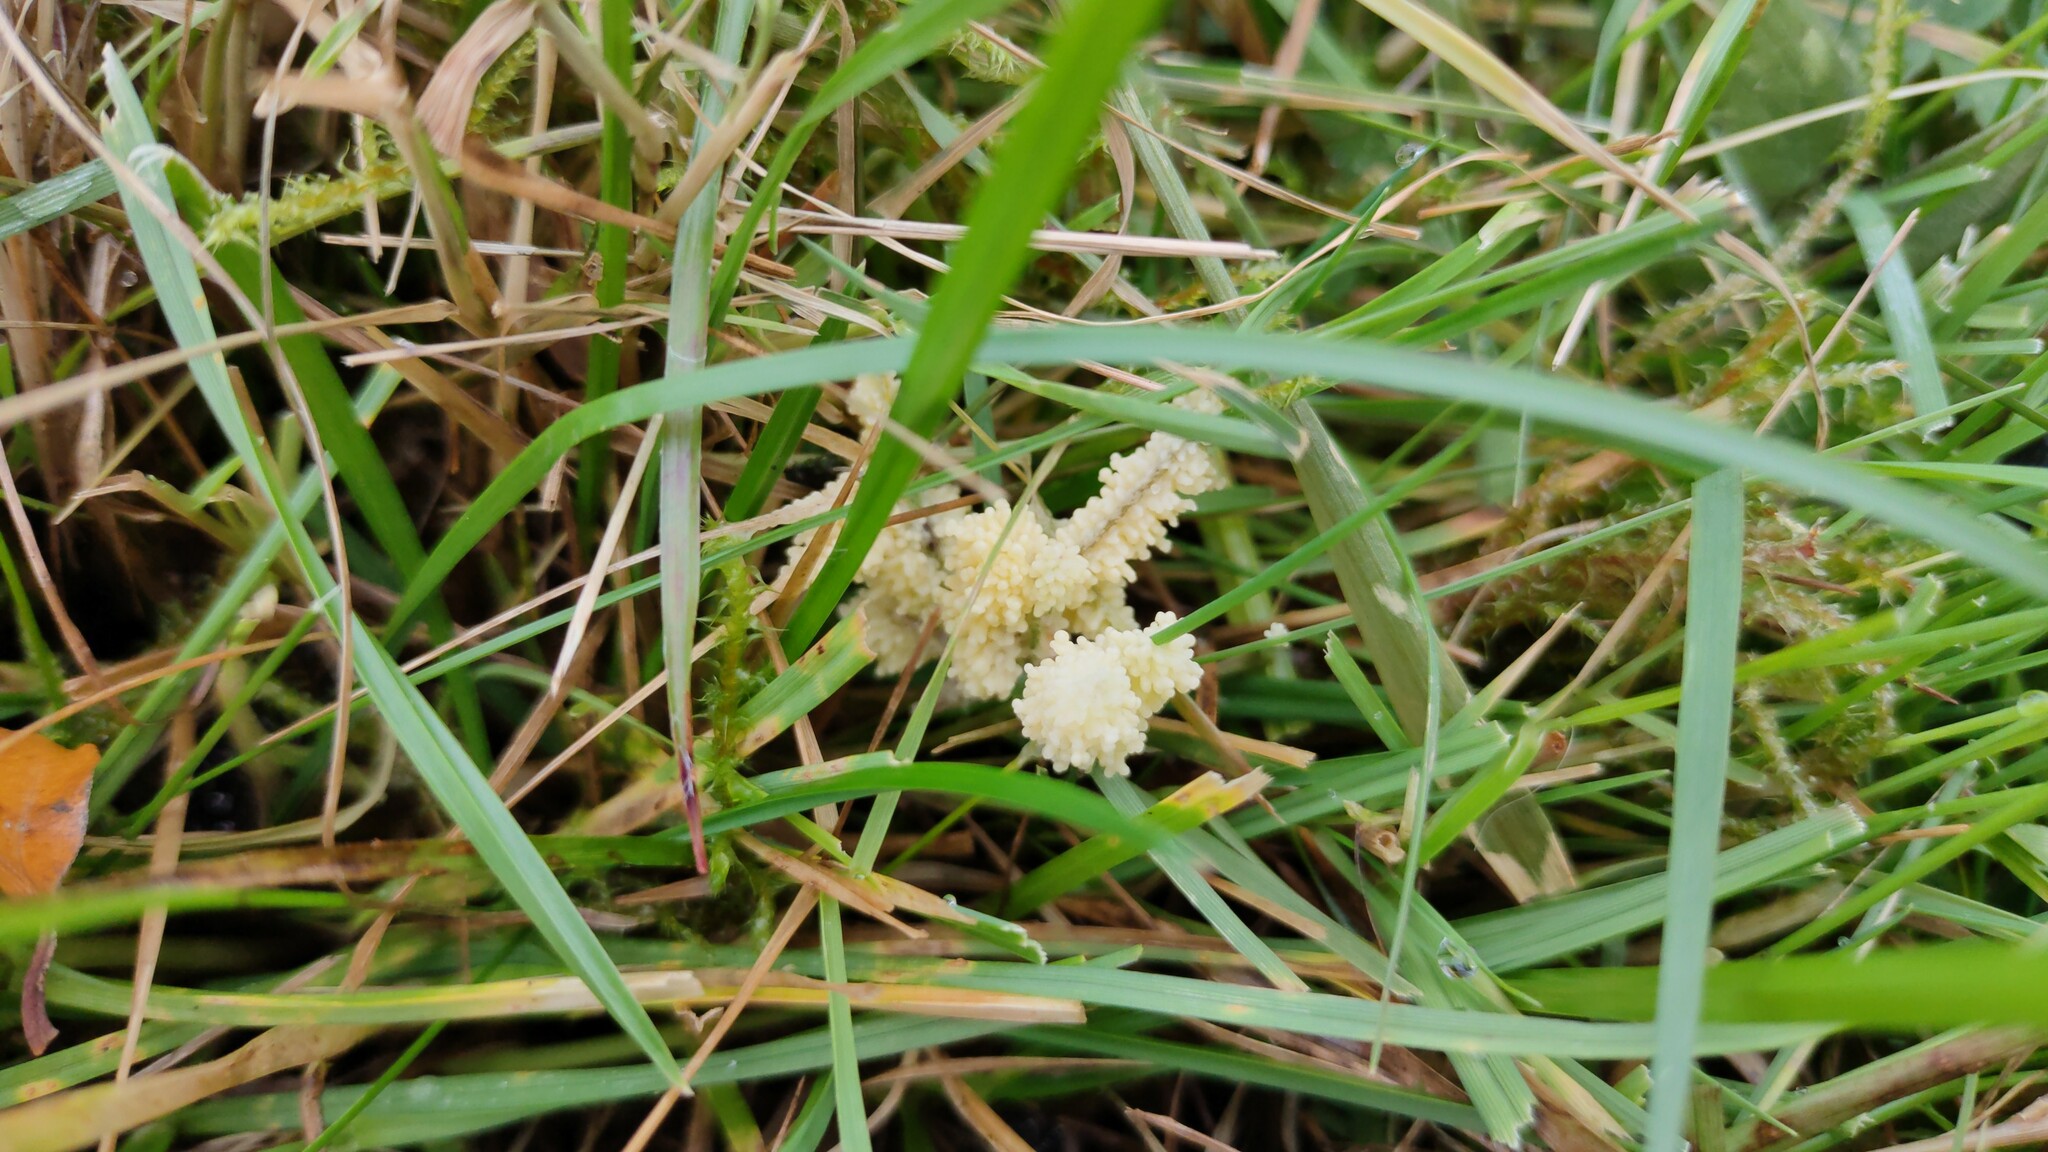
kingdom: Protozoa
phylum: Mycetozoa
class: Myxomycetes
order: Physarales
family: Physaraceae
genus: Didymium
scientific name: Didymium
